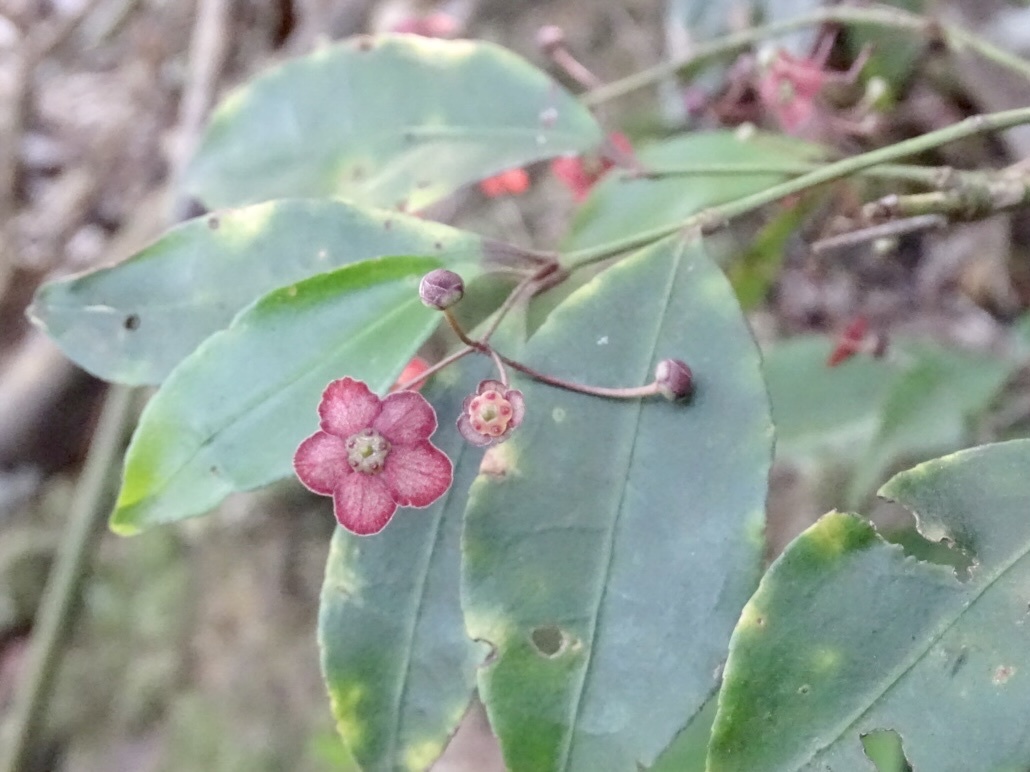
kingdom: Plantae
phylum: Tracheophyta
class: Magnoliopsida
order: Celastrales
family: Celastraceae
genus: Euonymus
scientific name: Euonymus laxiflorus
